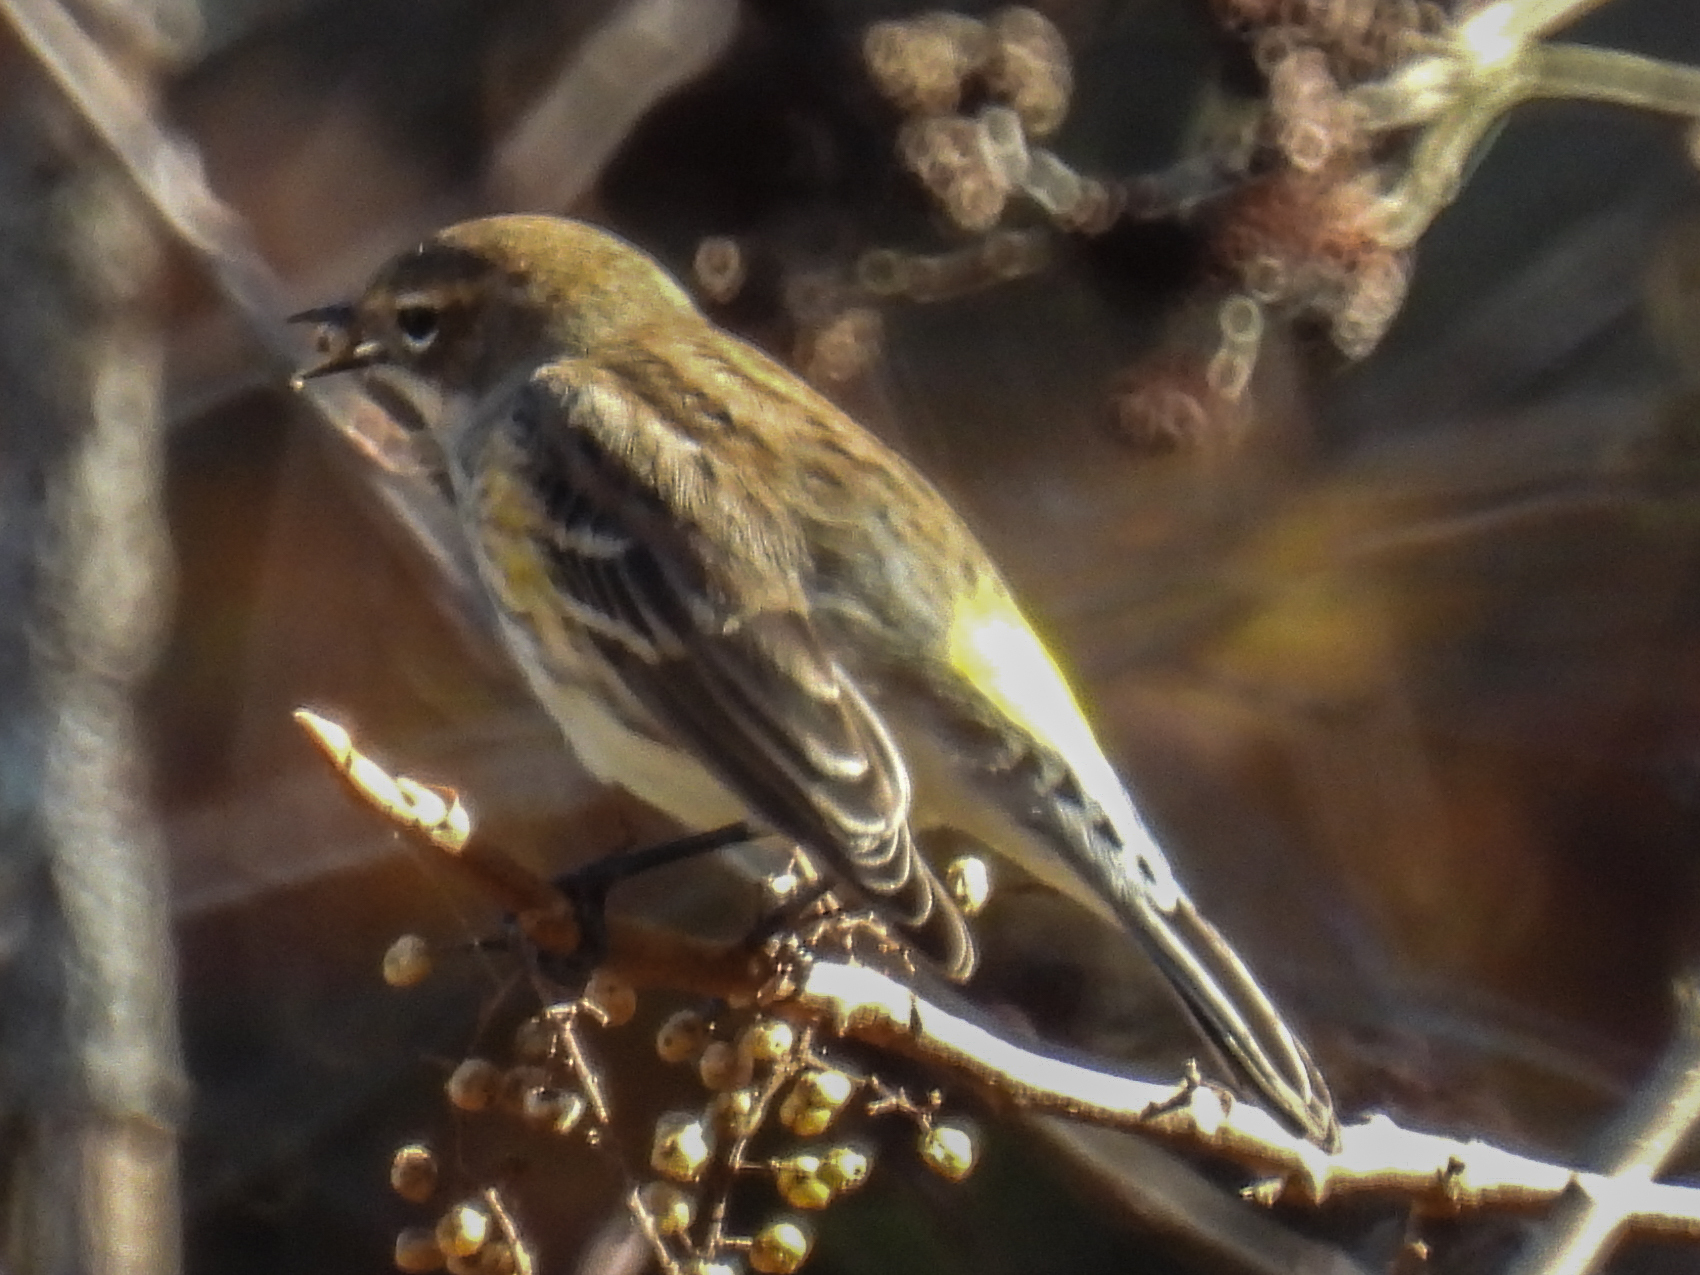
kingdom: Animalia
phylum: Chordata
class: Aves
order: Passeriformes
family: Parulidae
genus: Setophaga
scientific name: Setophaga coronata
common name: Myrtle warbler
